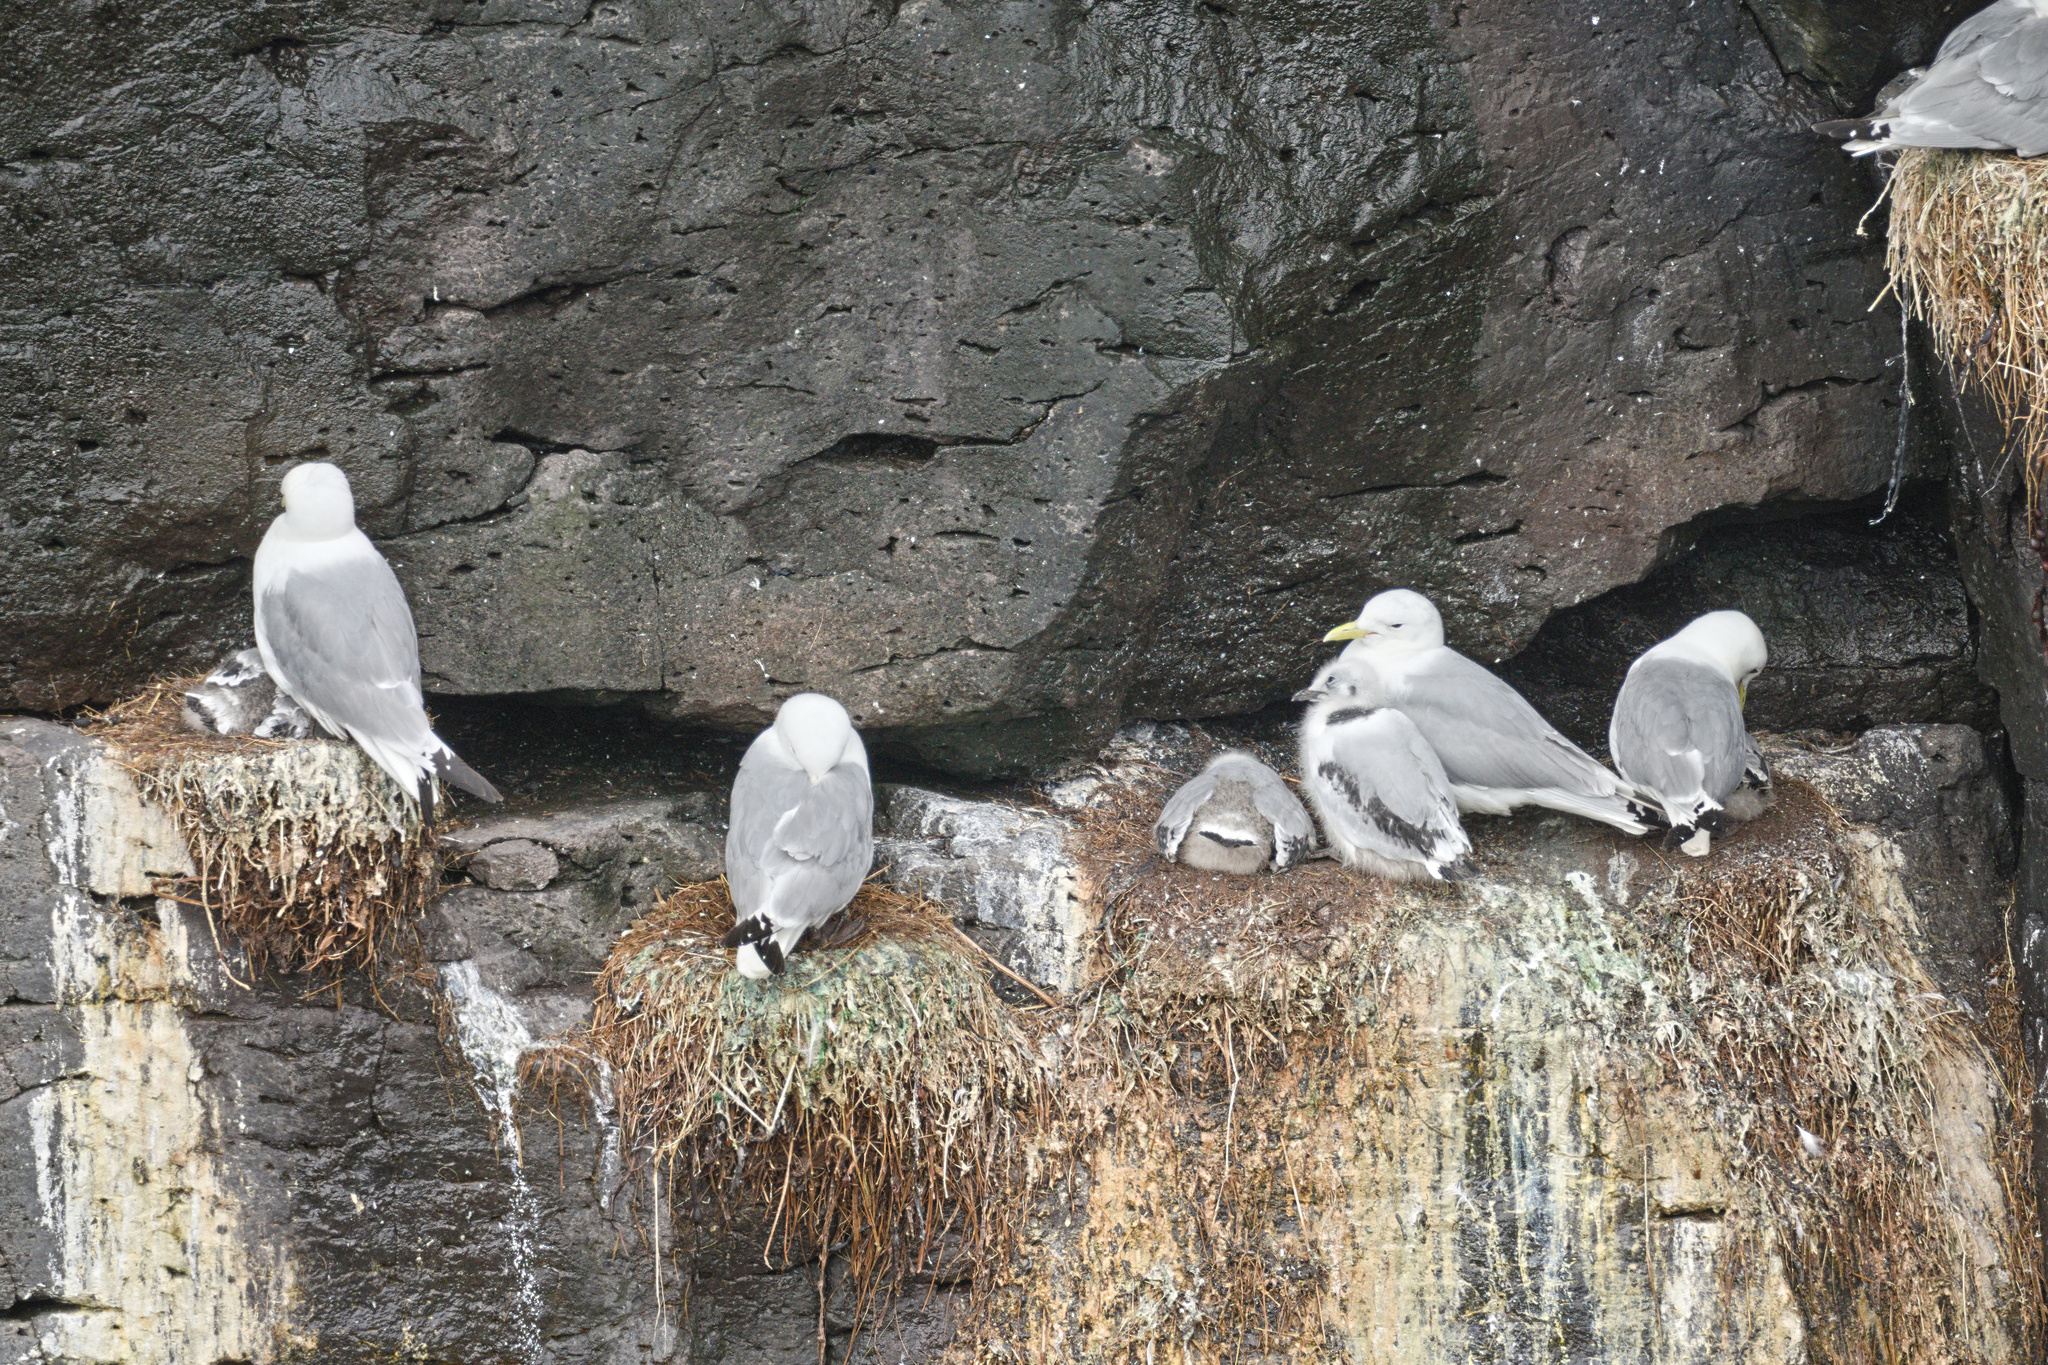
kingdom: Animalia
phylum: Chordata
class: Aves
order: Charadriiformes
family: Laridae
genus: Rissa
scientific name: Rissa tridactyla
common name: Black-legged kittiwake
